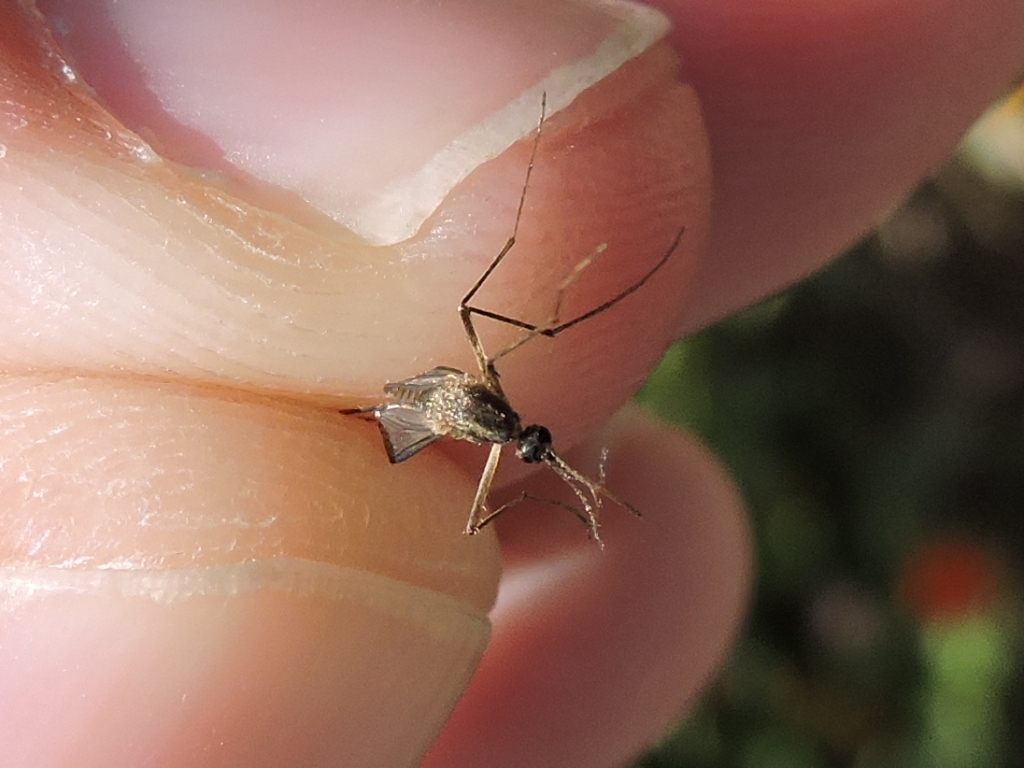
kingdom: Animalia
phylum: Arthropoda
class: Insecta
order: Diptera
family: Culicidae
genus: Aedes
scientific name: Aedes trivittatus
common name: Plains floodwater mosquito
